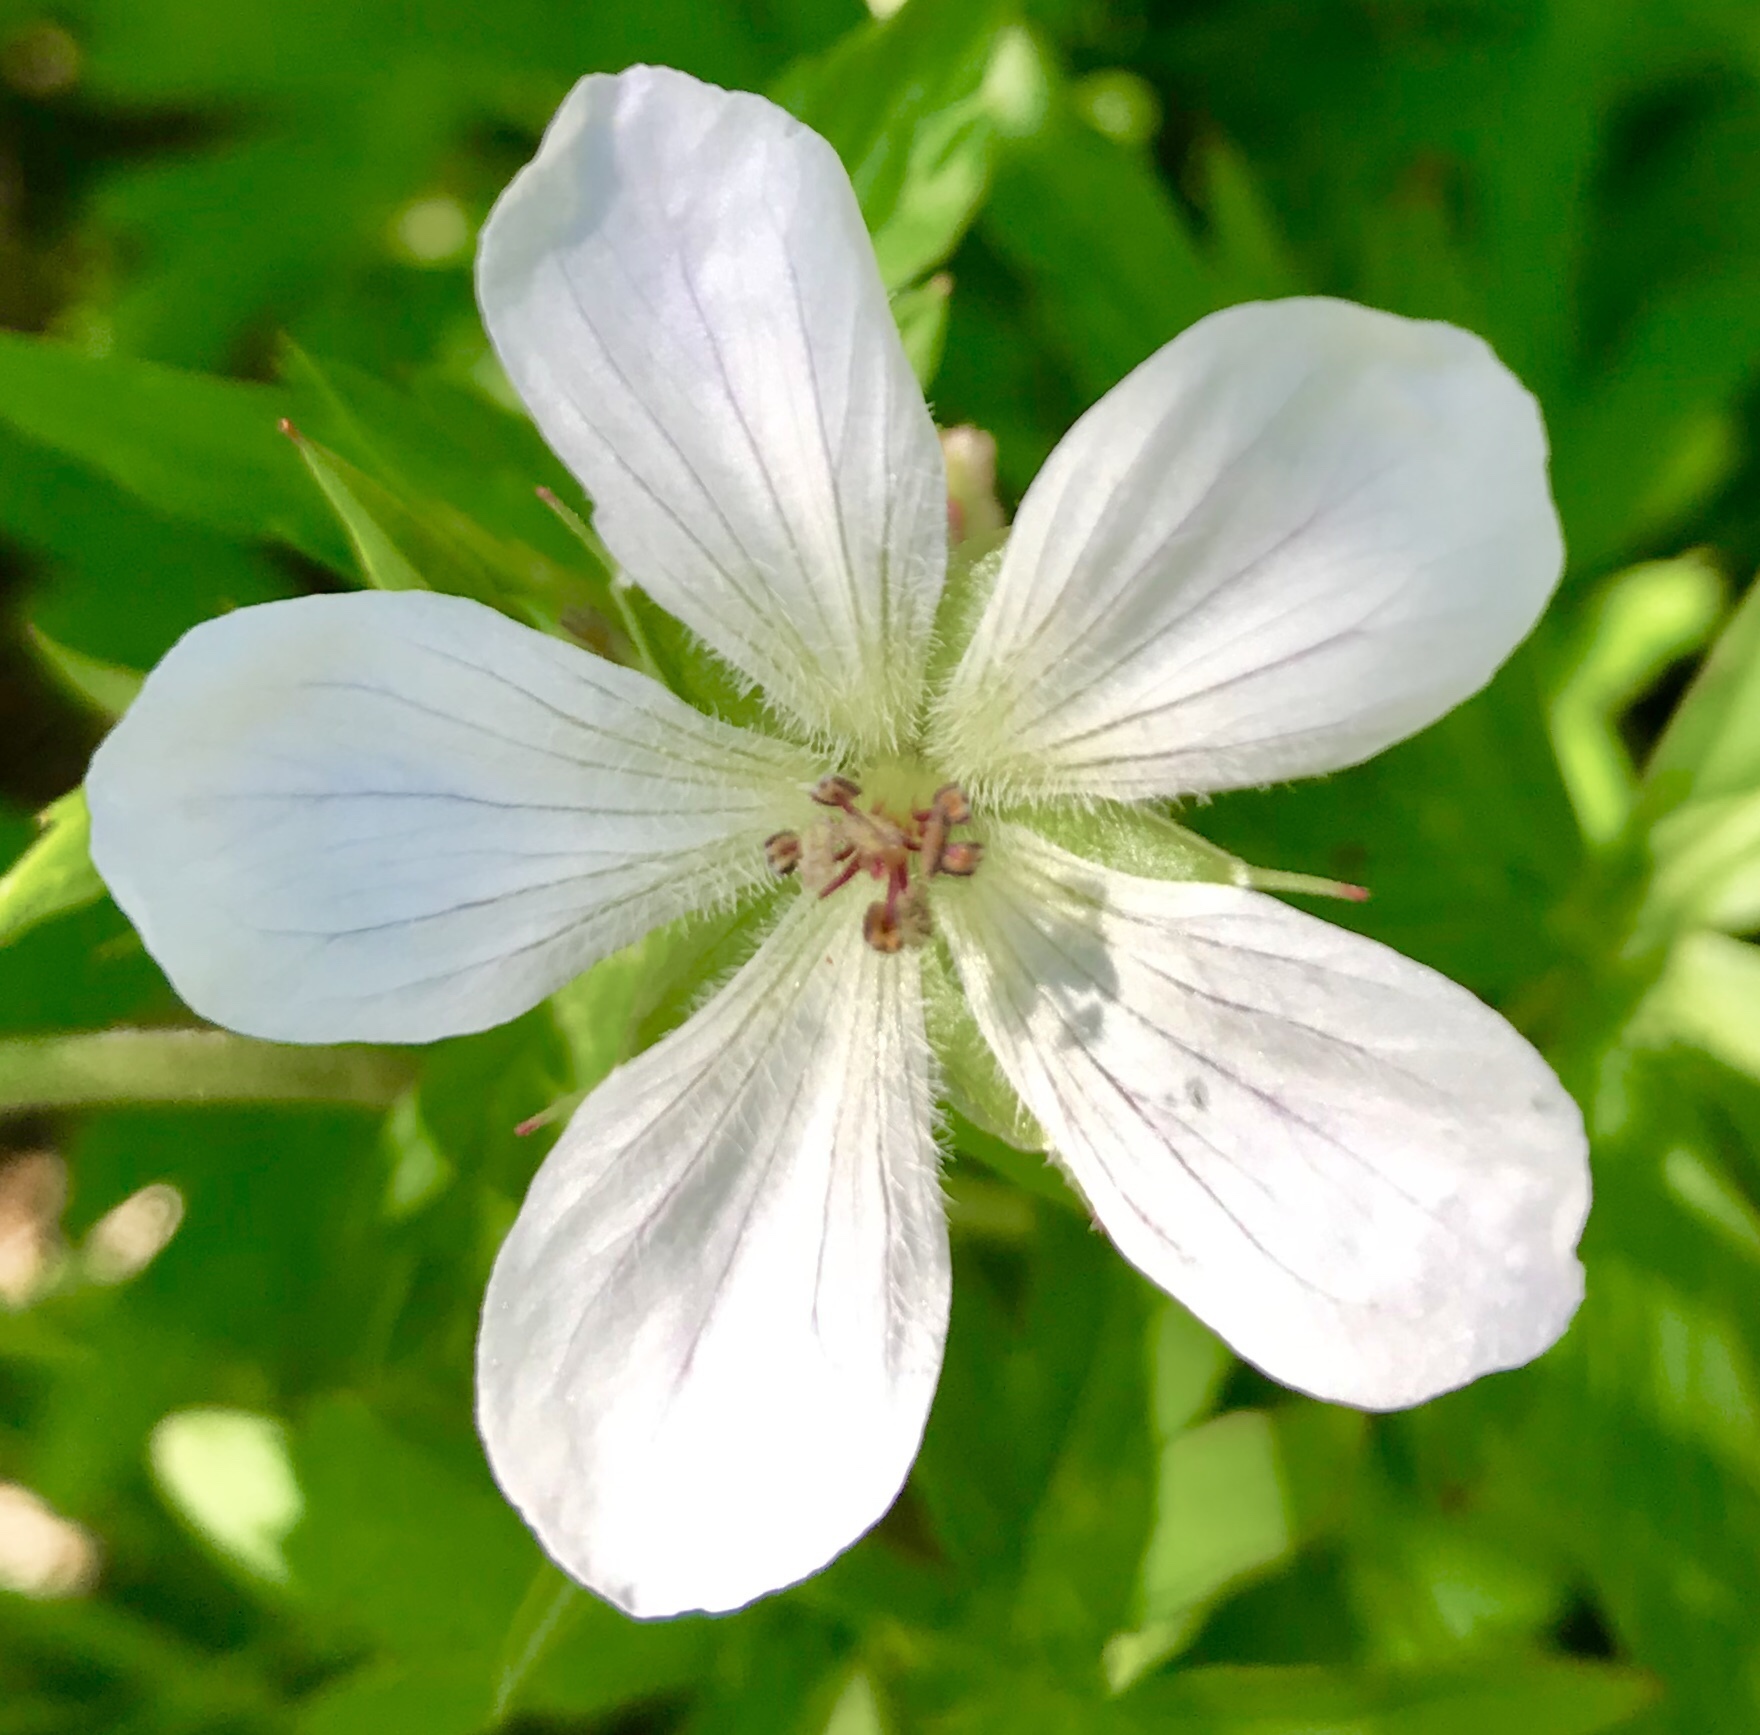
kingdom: Plantae
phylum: Tracheophyta
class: Magnoliopsida
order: Geraniales
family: Geraniaceae
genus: Geranium
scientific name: Geranium richardsonii
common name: Richardson's crane's-bill
